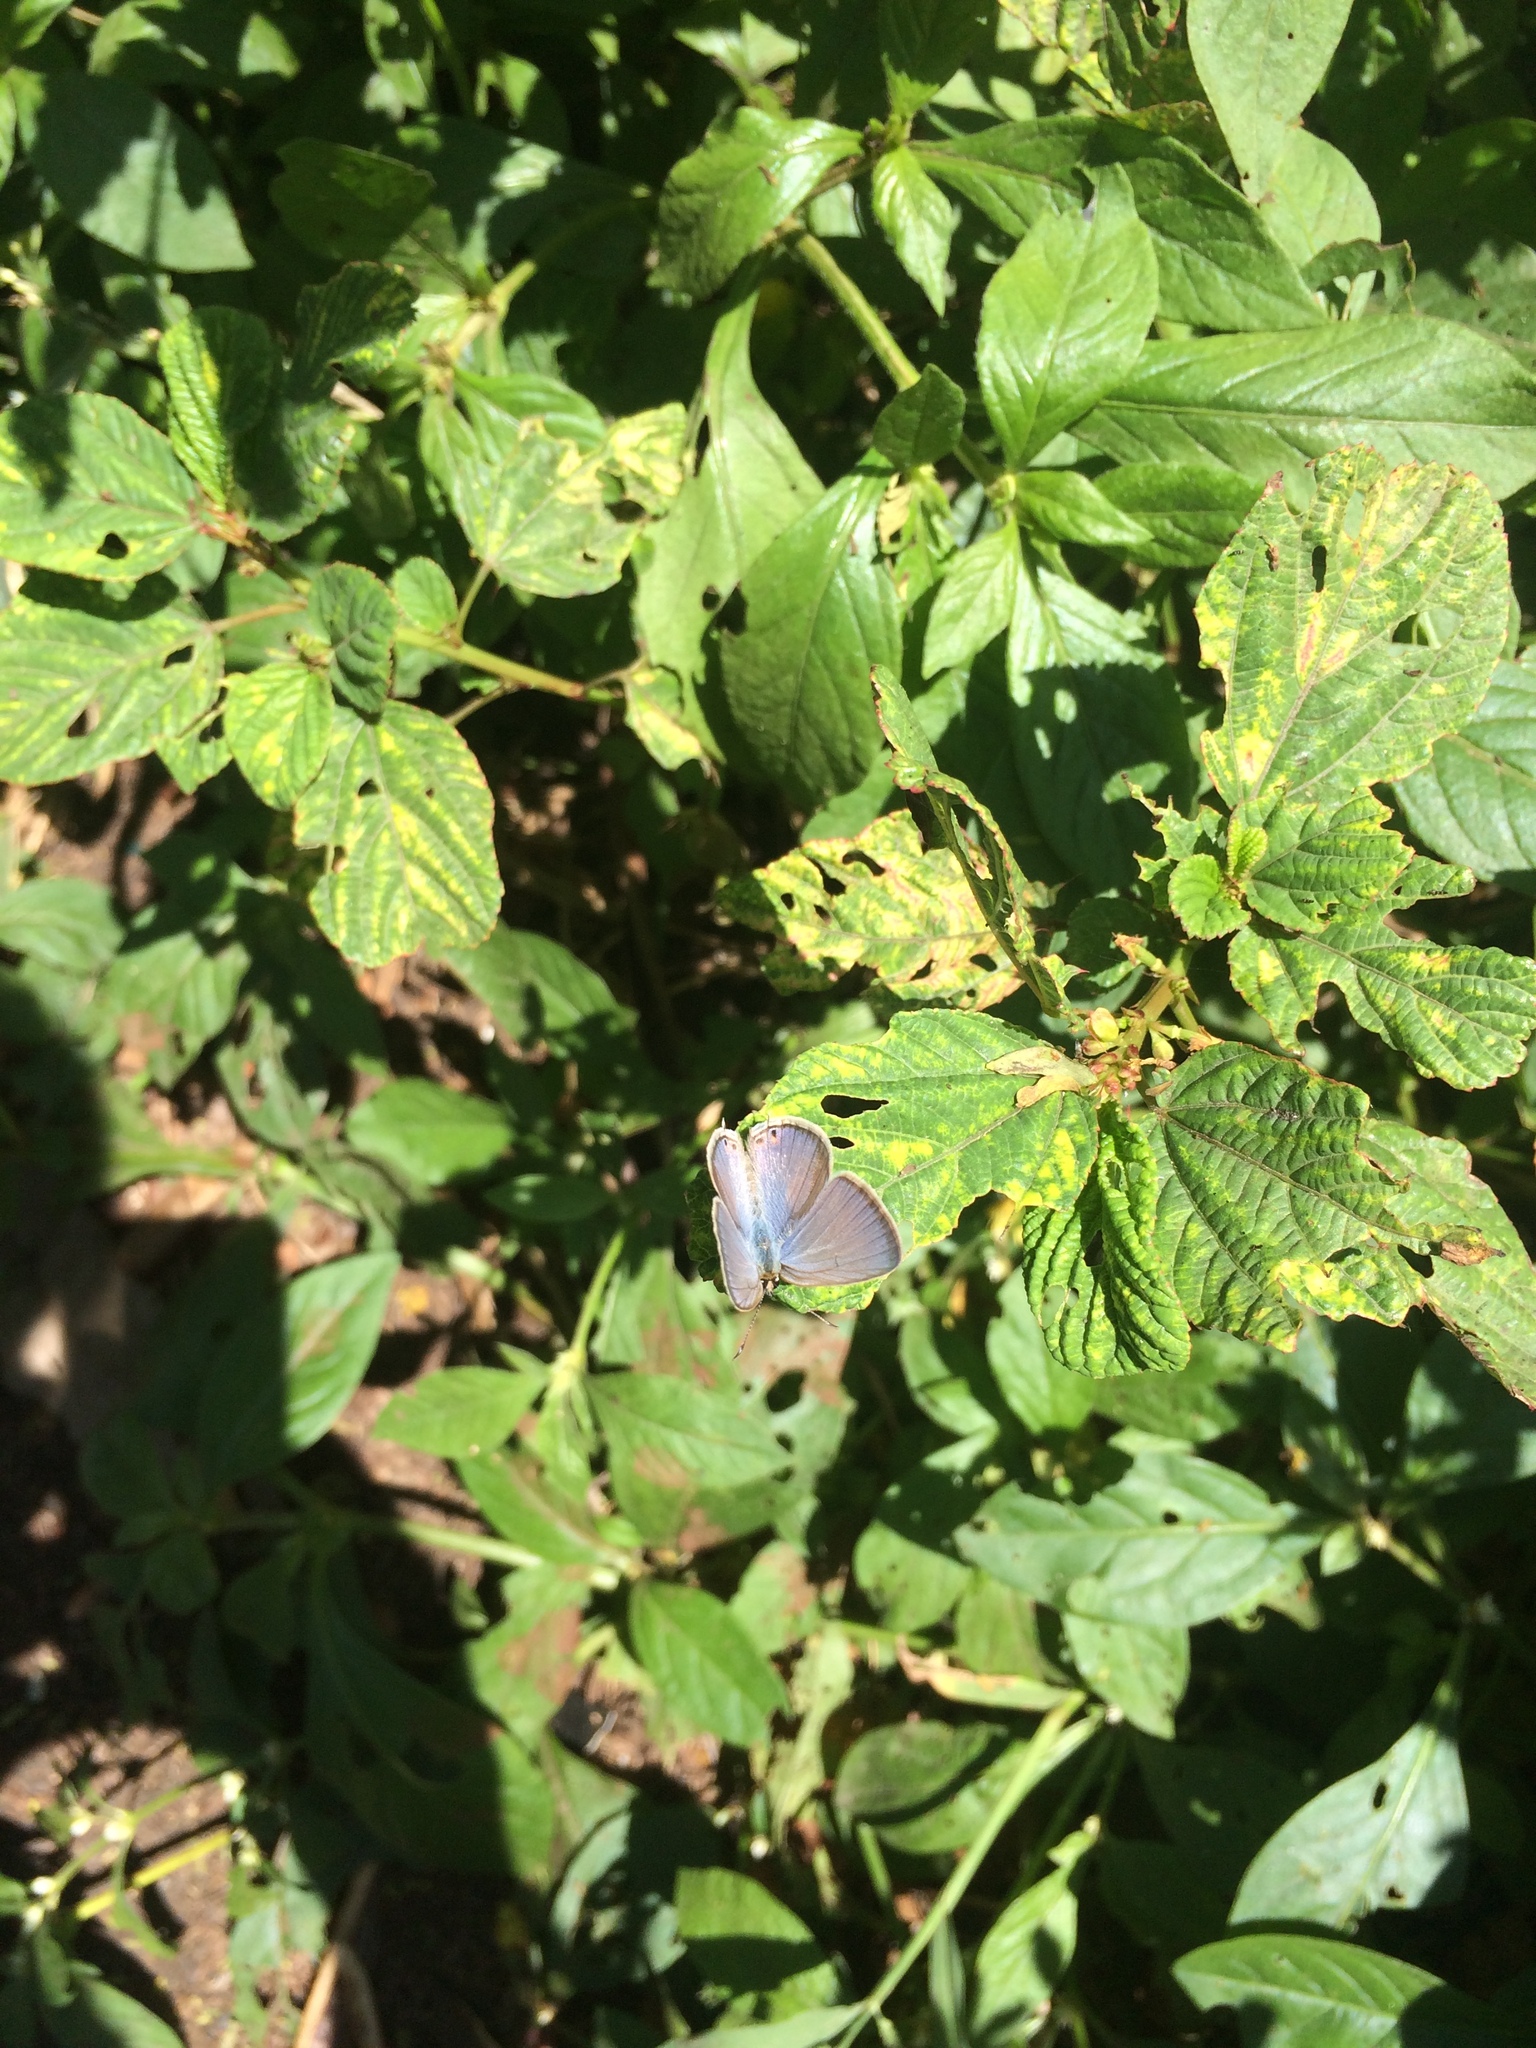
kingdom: Animalia
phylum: Arthropoda
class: Insecta
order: Lepidoptera
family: Lycaenidae
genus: Euchrysops
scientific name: Euchrysops cnejus
